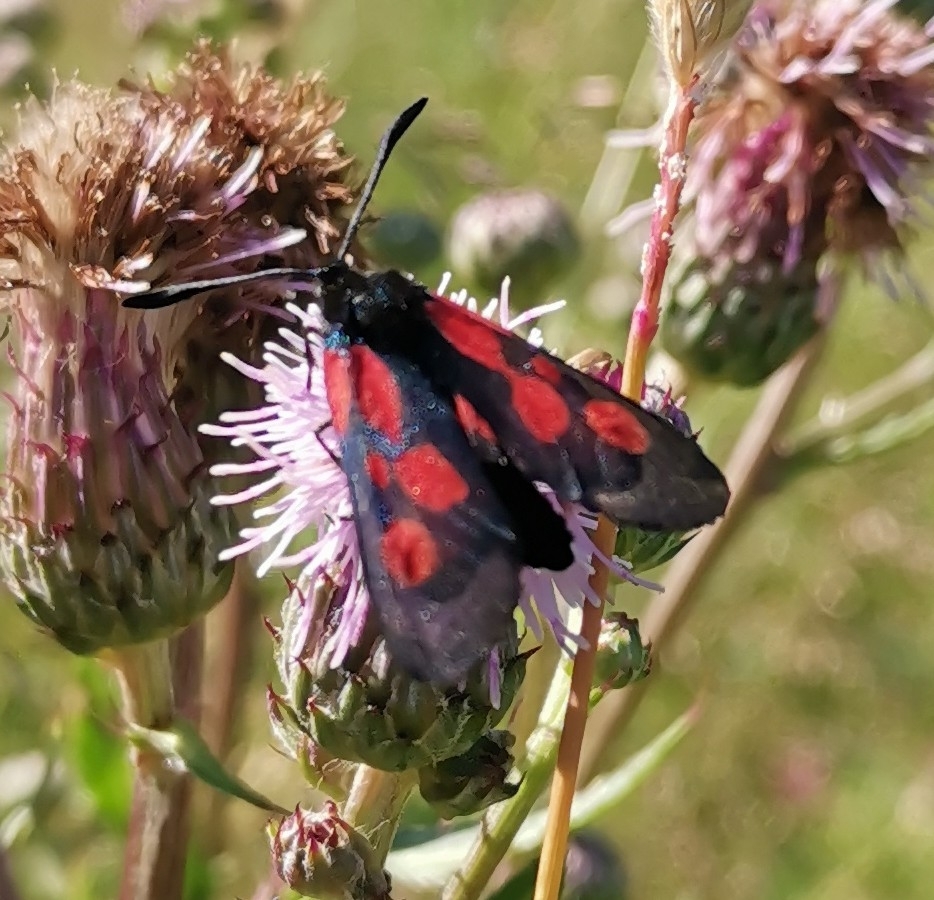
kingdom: Animalia
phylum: Arthropoda
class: Insecta
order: Lepidoptera
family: Zygaenidae
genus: Zygaena
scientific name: Zygaena viciae
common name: New forest burnet
